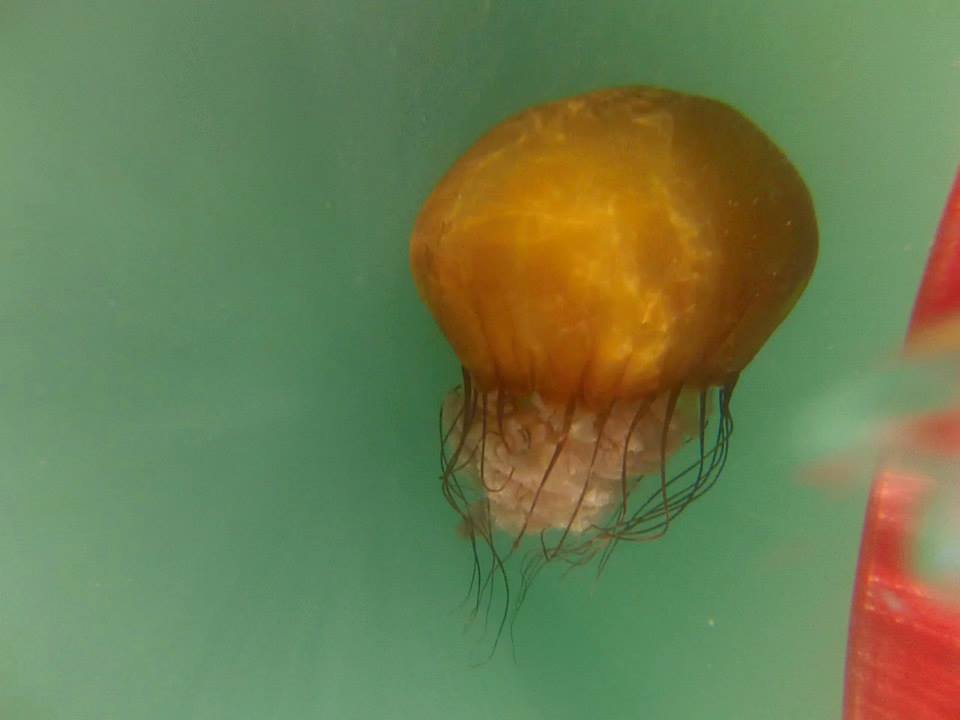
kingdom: Animalia
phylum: Cnidaria
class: Scyphozoa
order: Semaeostomeae
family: Pelagiidae
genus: Chrysaora
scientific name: Chrysaora fuscescens
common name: Sea nettle
